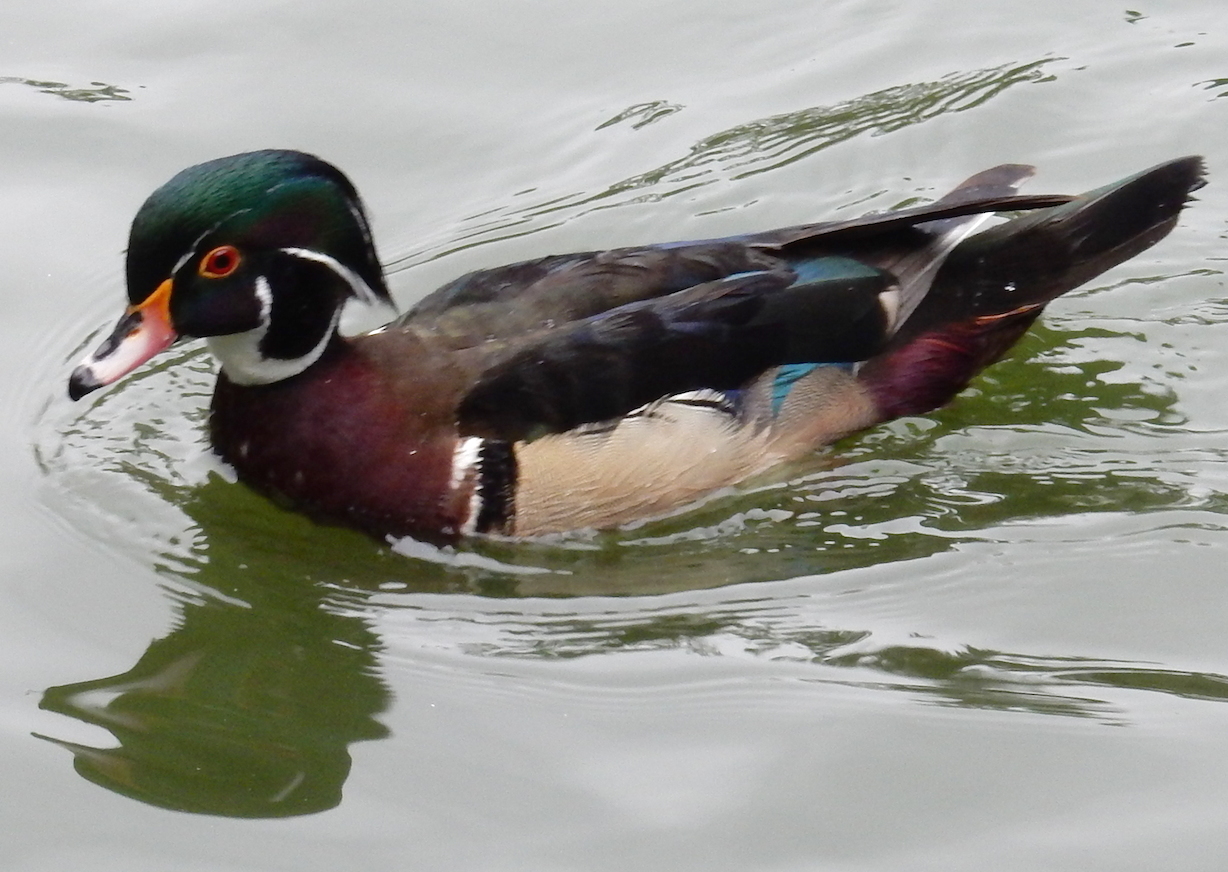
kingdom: Animalia
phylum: Chordata
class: Aves
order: Anseriformes
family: Anatidae
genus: Aix
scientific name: Aix sponsa
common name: Wood duck
